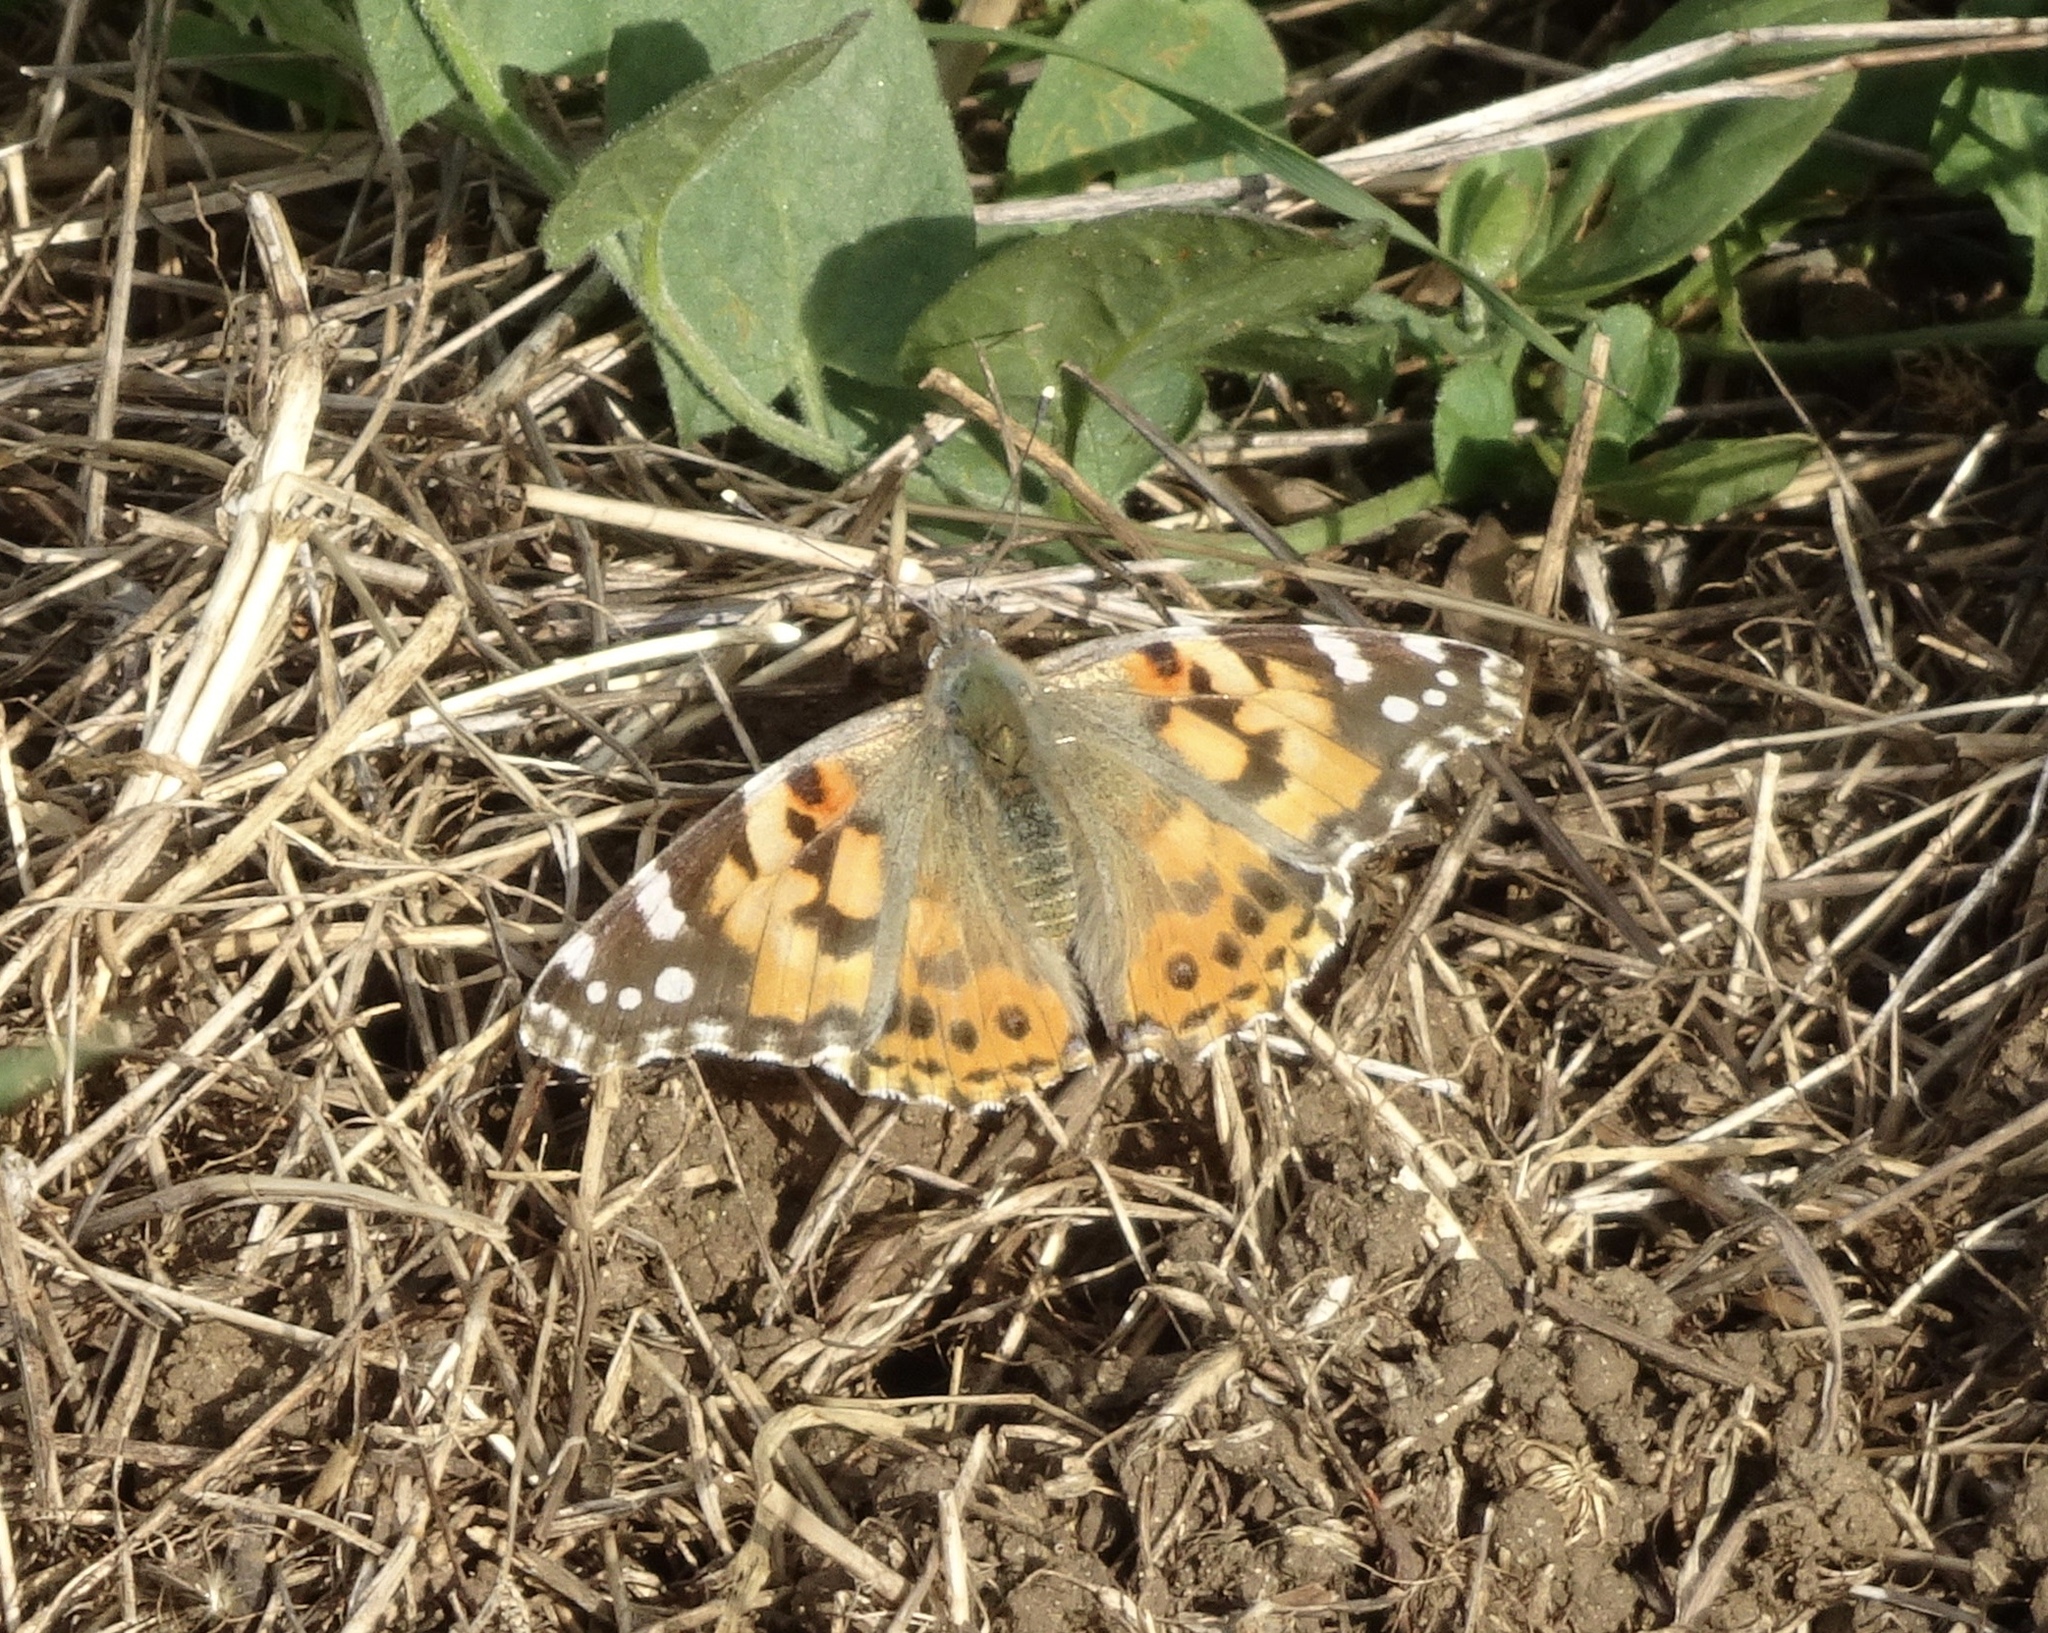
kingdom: Animalia
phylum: Arthropoda
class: Insecta
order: Lepidoptera
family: Nymphalidae
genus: Vanessa
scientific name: Vanessa cardui
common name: Painted lady
